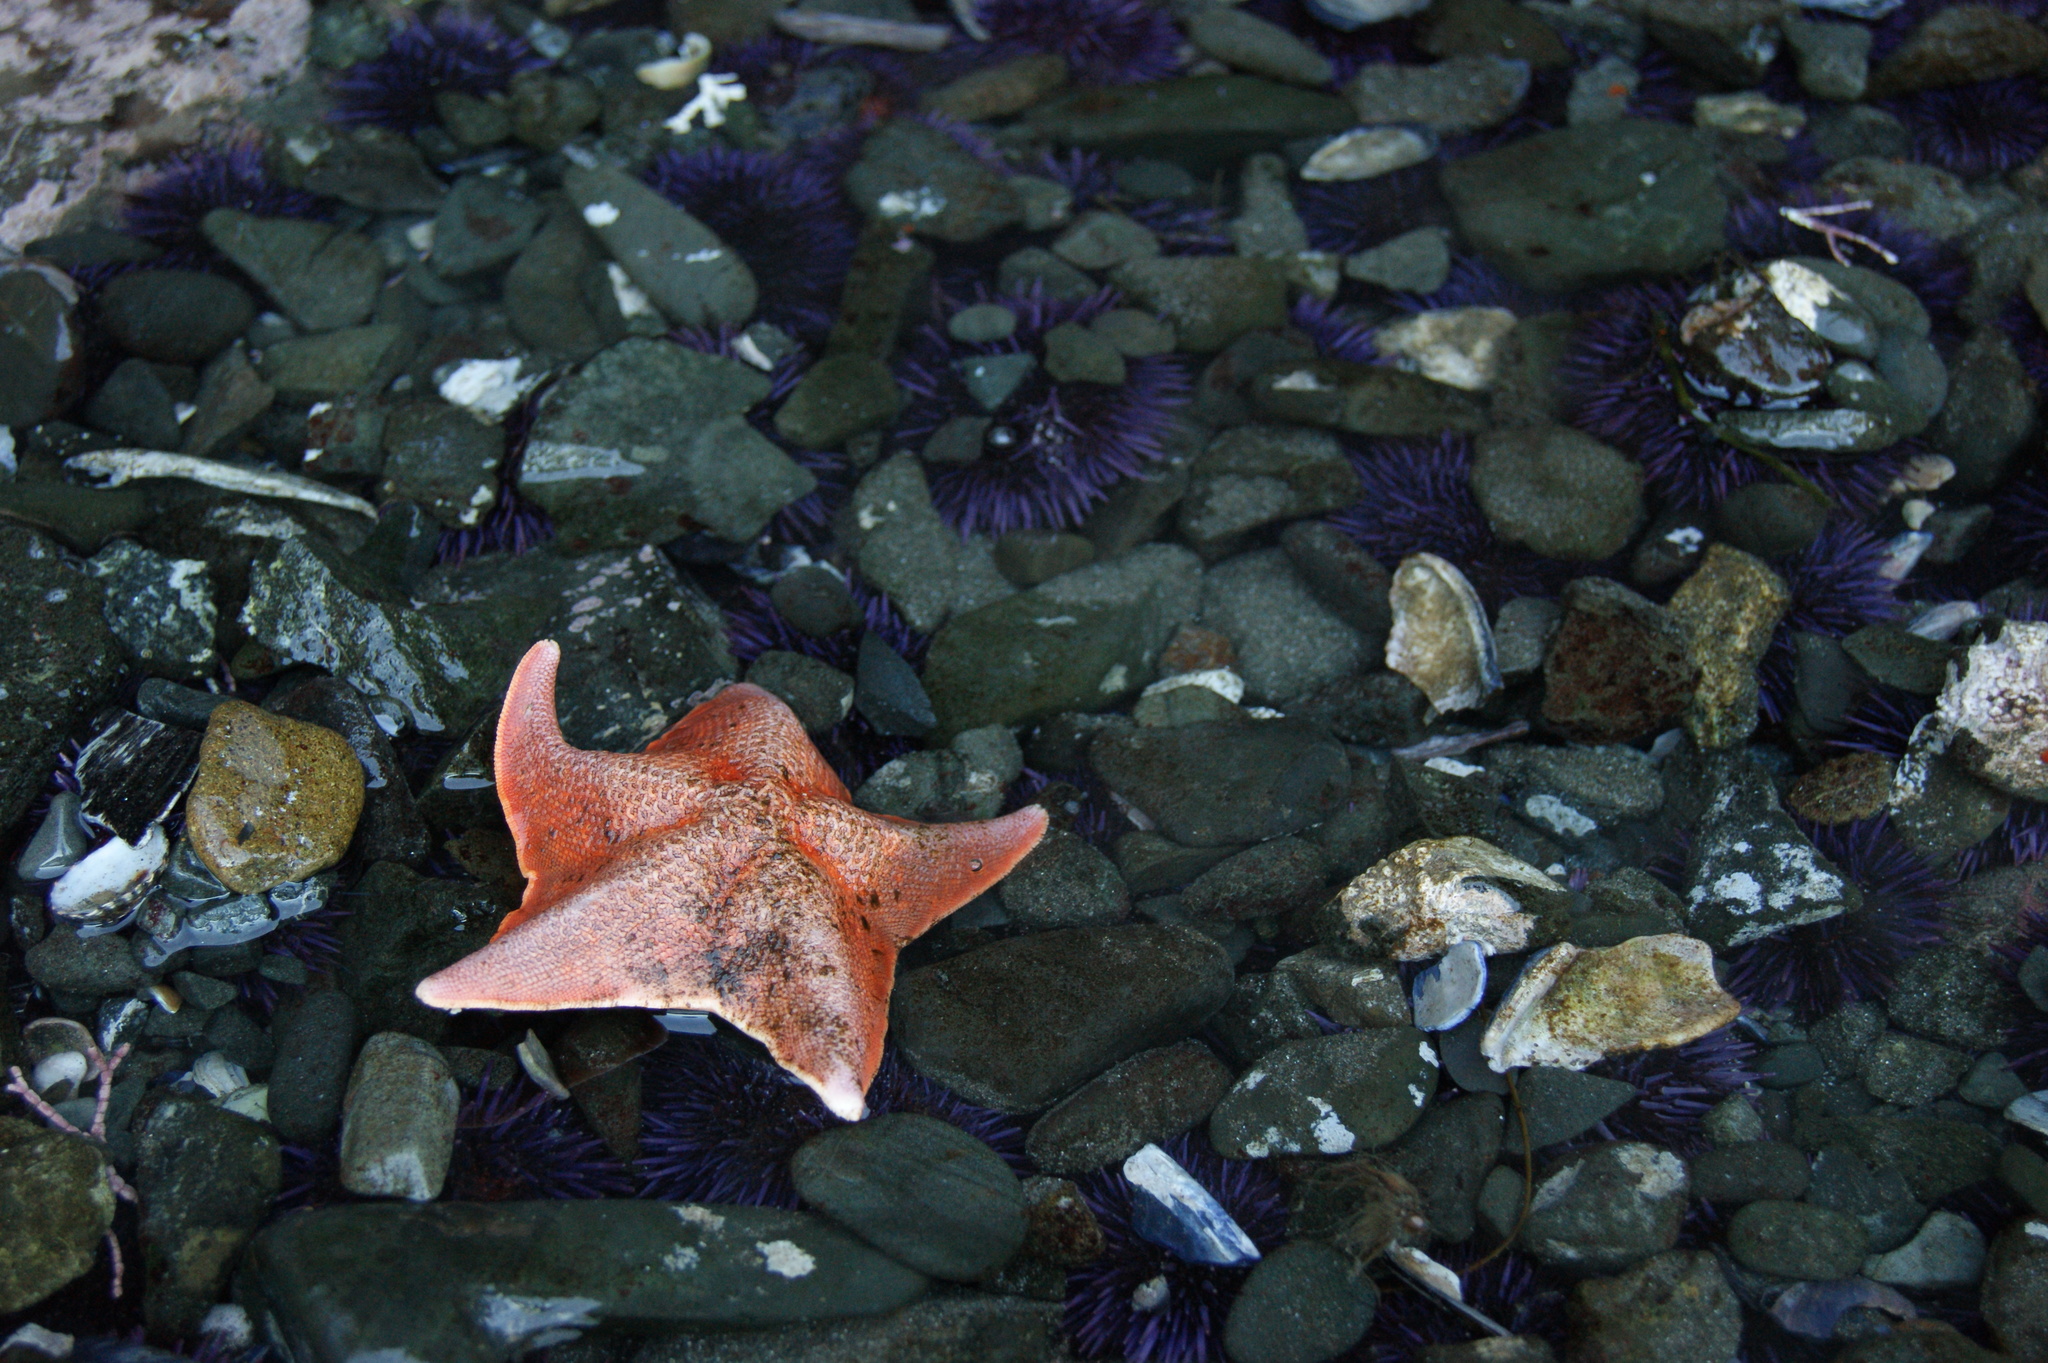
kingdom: Animalia
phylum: Echinodermata
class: Asteroidea
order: Valvatida
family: Asterinidae
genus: Patiria
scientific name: Patiria miniata
